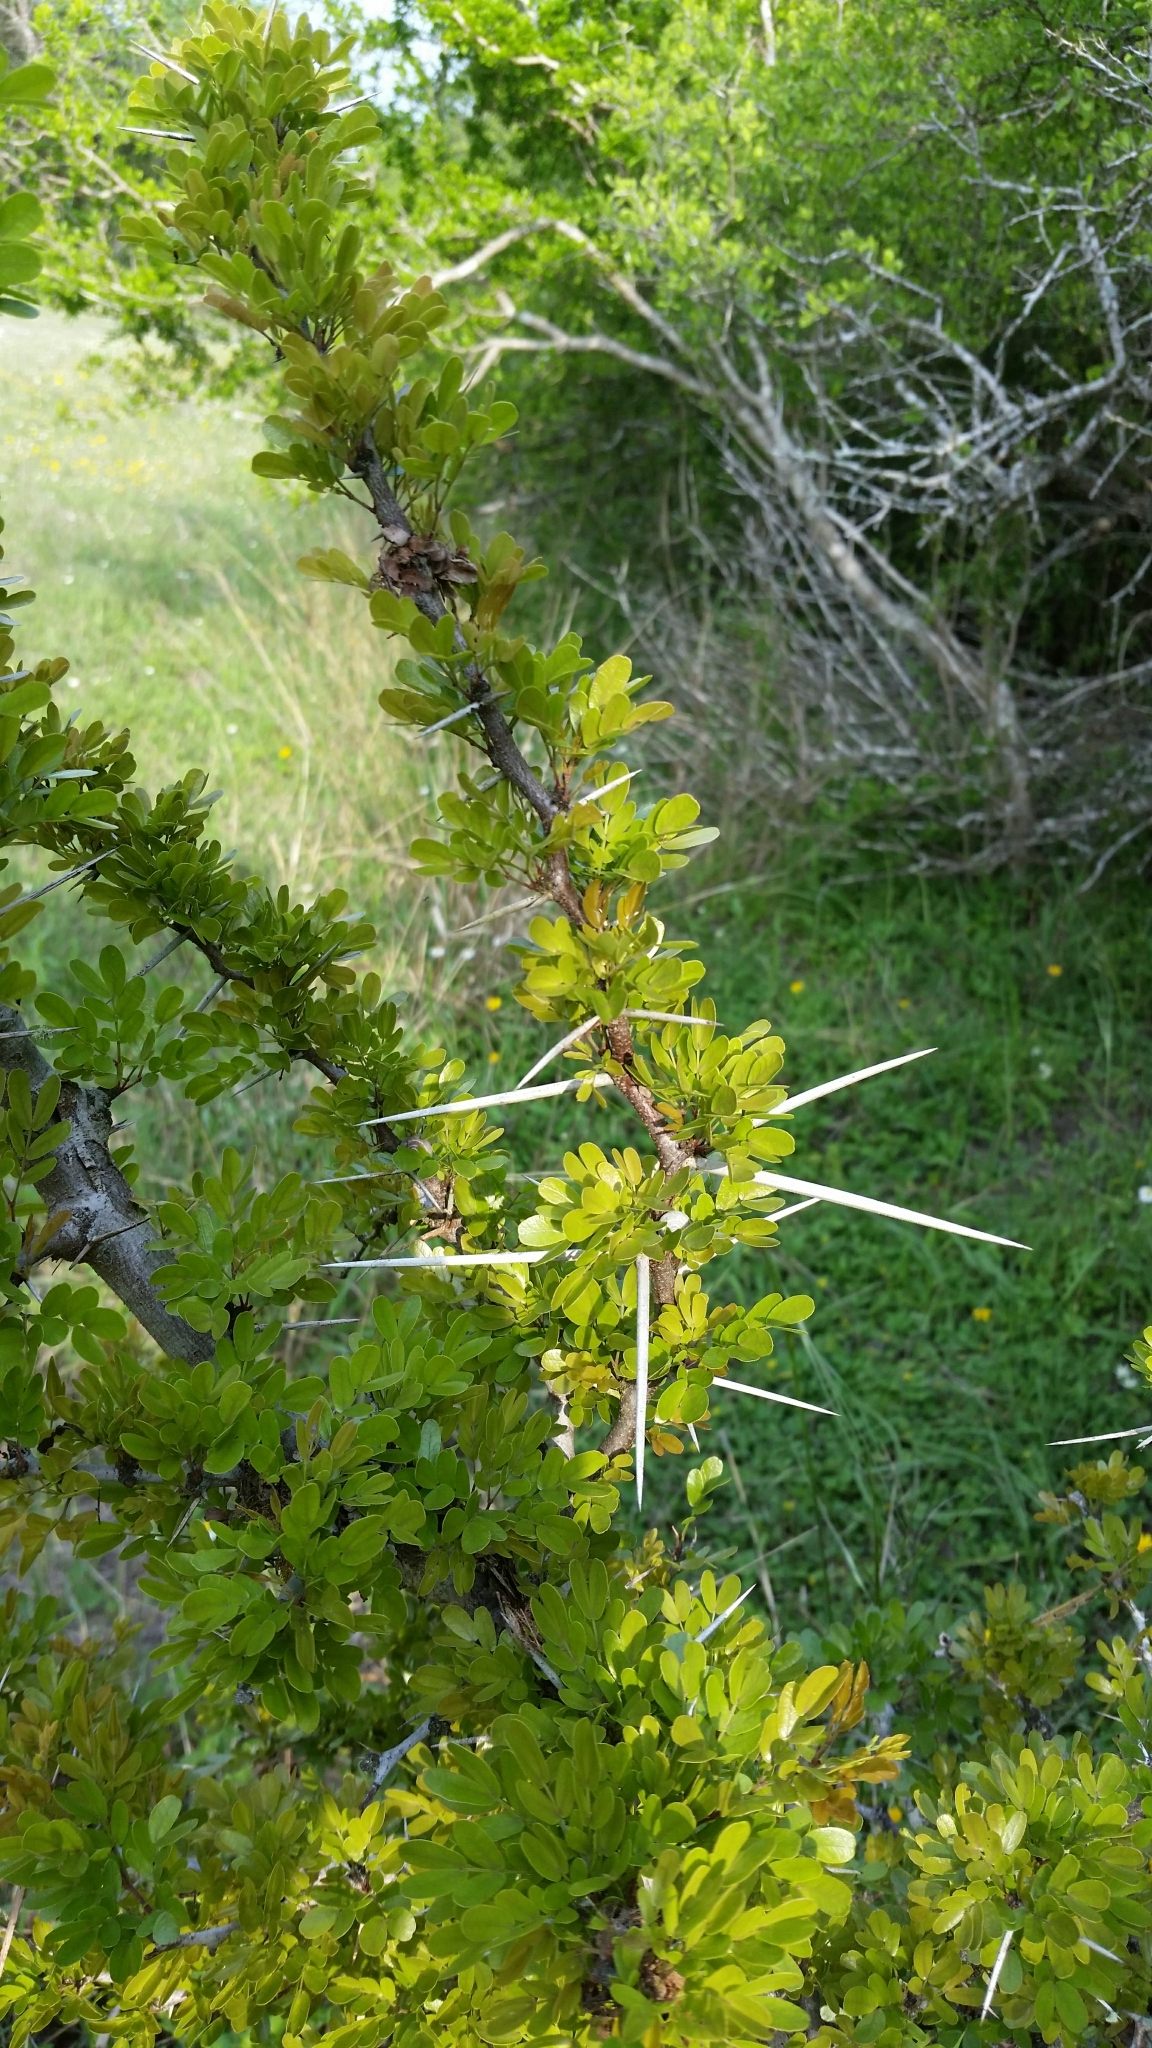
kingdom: Plantae
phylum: Tracheophyta
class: Magnoliopsida
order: Fabales
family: Fabaceae
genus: Vachellia
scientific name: Vachellia rigidula
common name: Blackbrush
